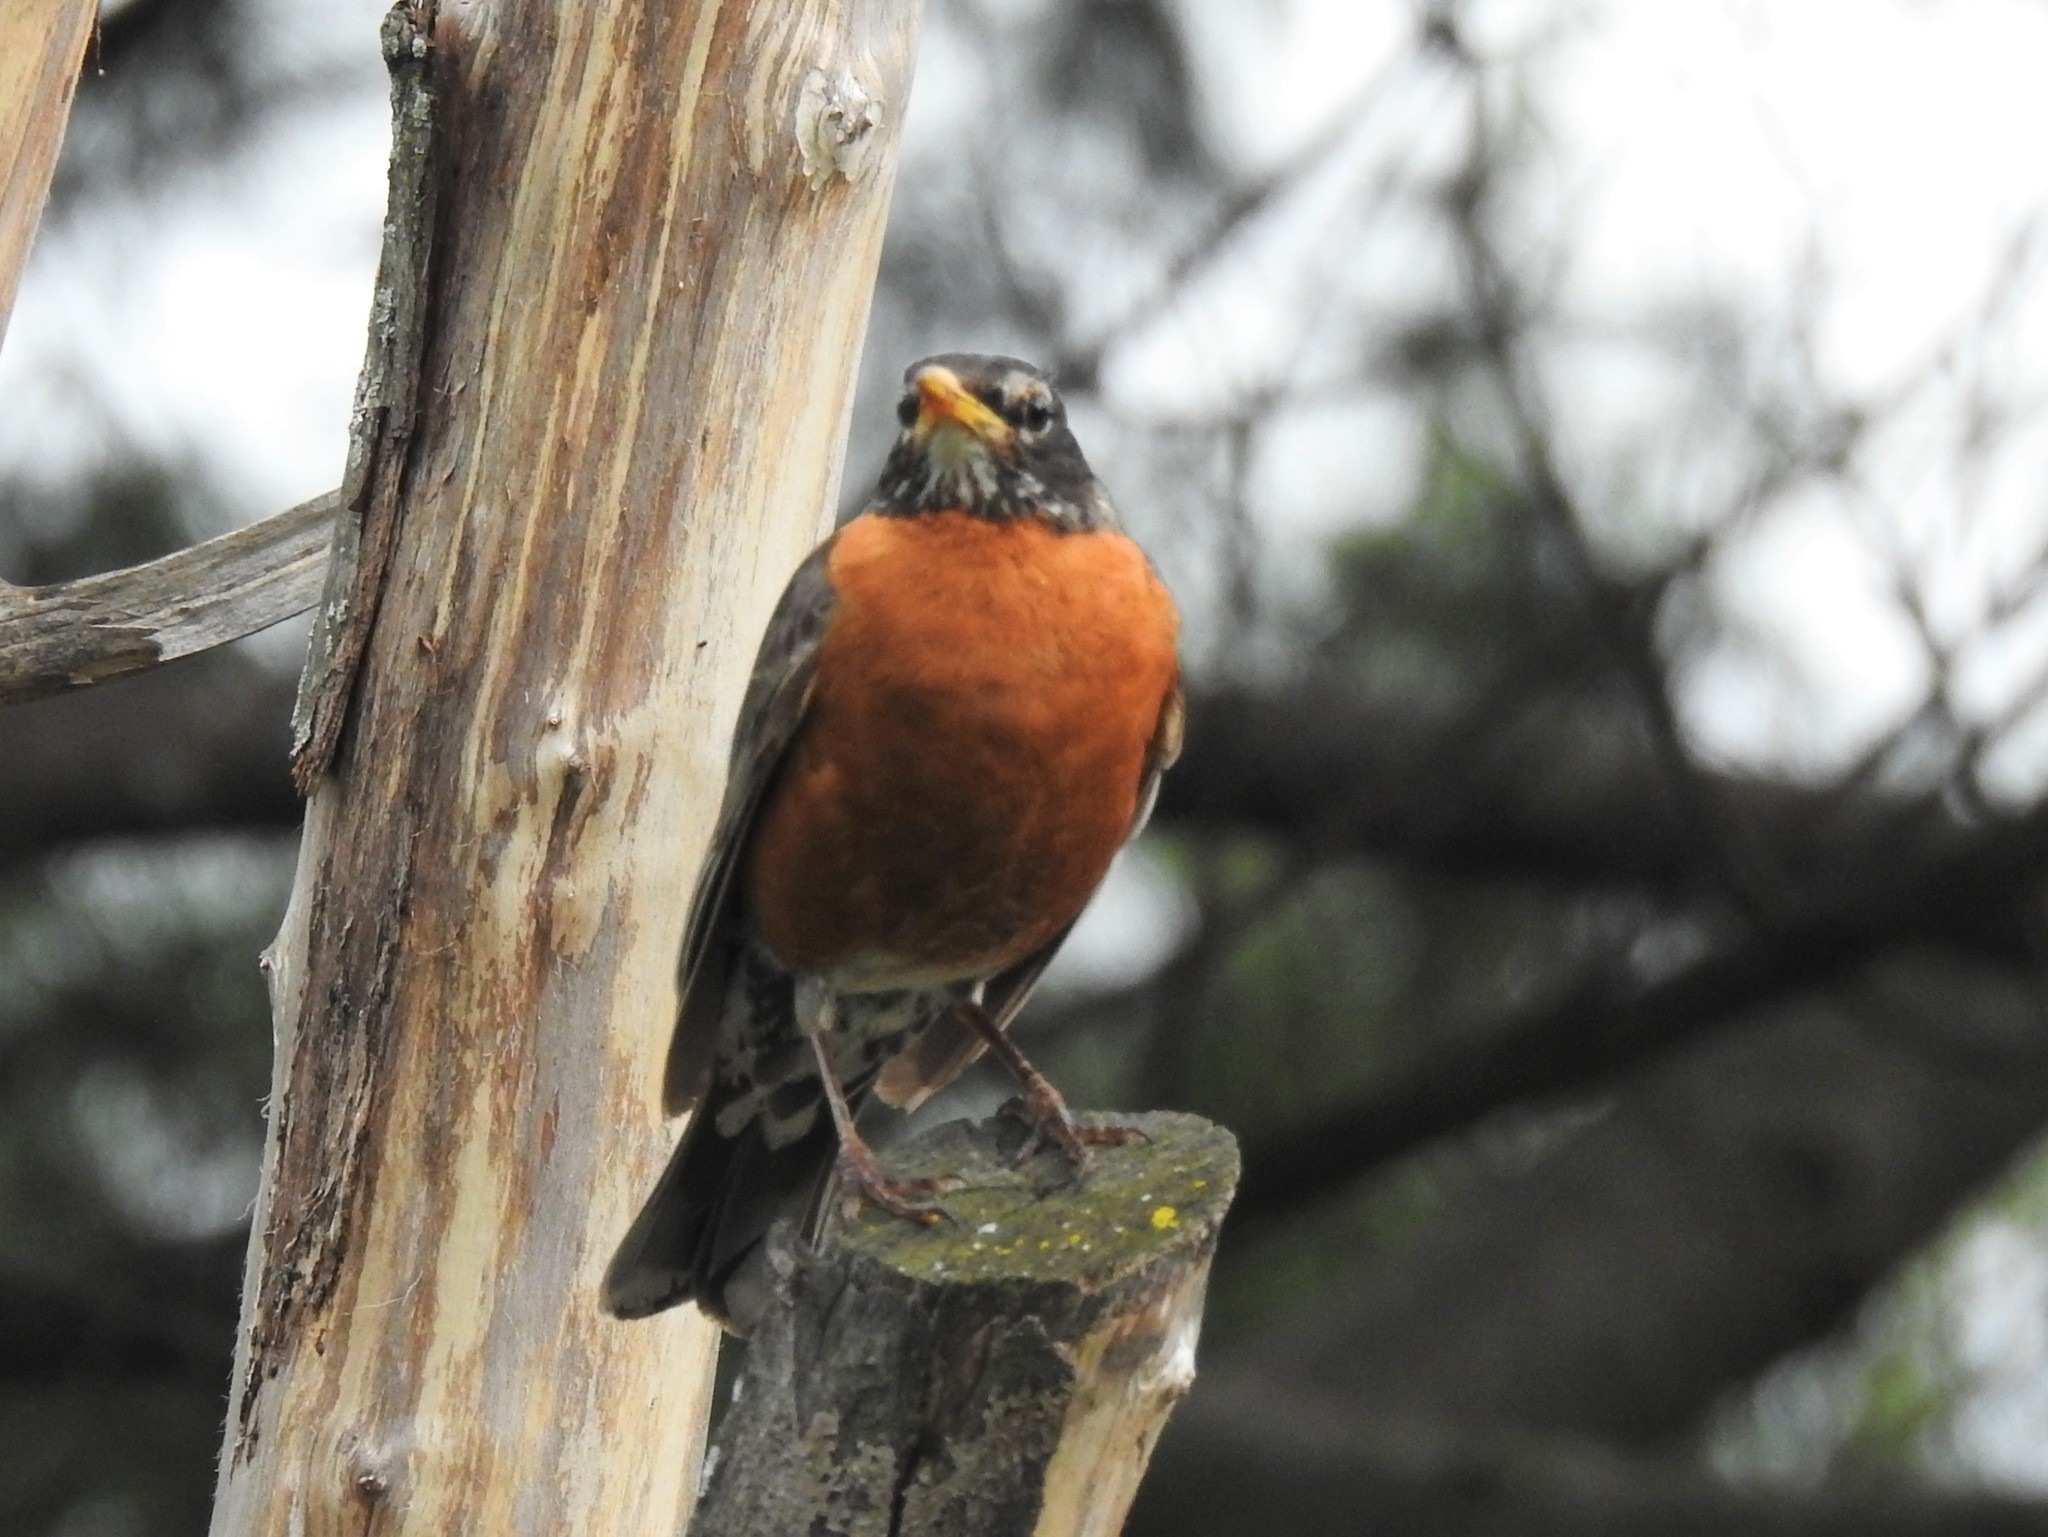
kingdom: Animalia
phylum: Chordata
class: Aves
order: Passeriformes
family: Turdidae
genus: Turdus
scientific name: Turdus migratorius
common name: American robin
